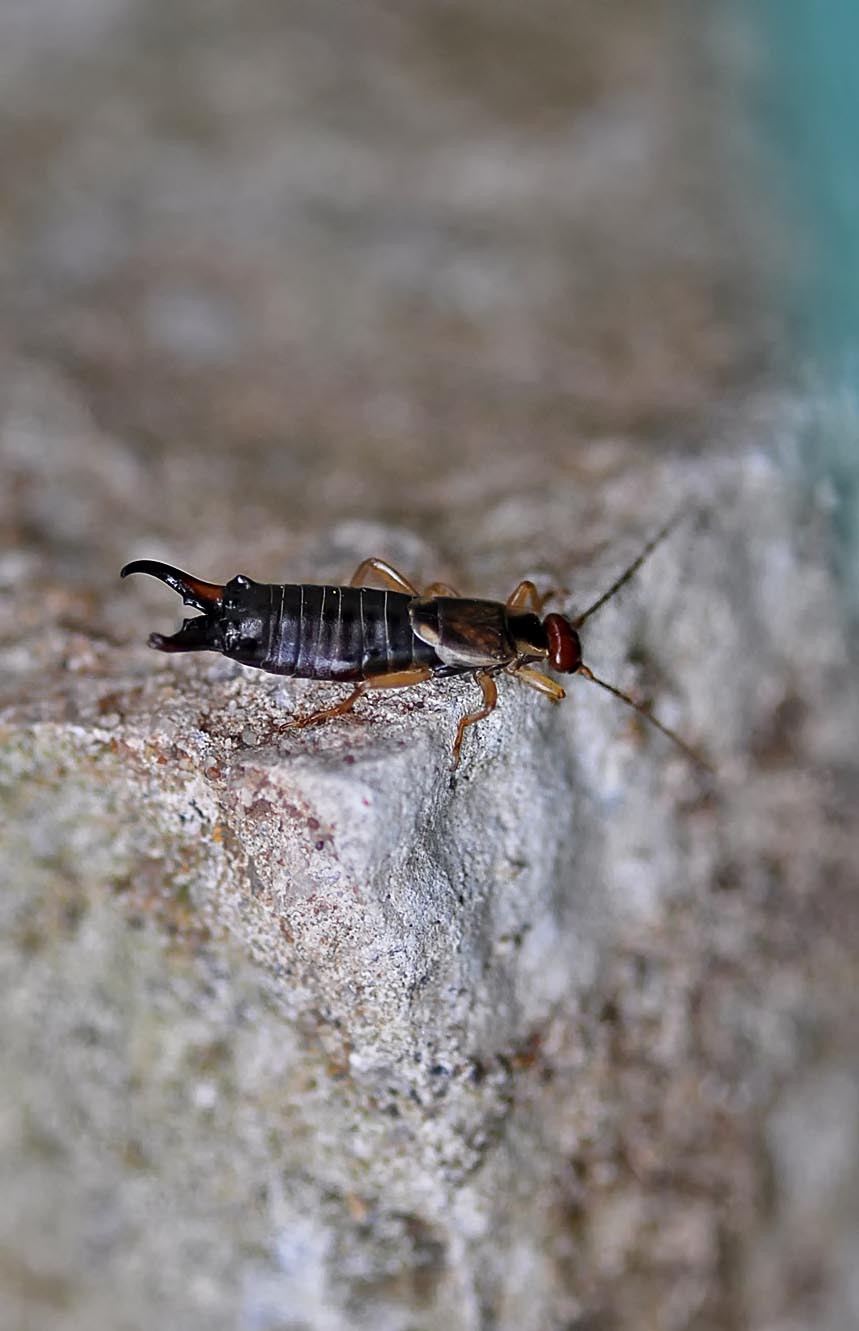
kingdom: Animalia
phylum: Arthropoda
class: Insecta
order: Dermaptera
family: Forficulidae
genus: Forficula
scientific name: Forficula dentata
